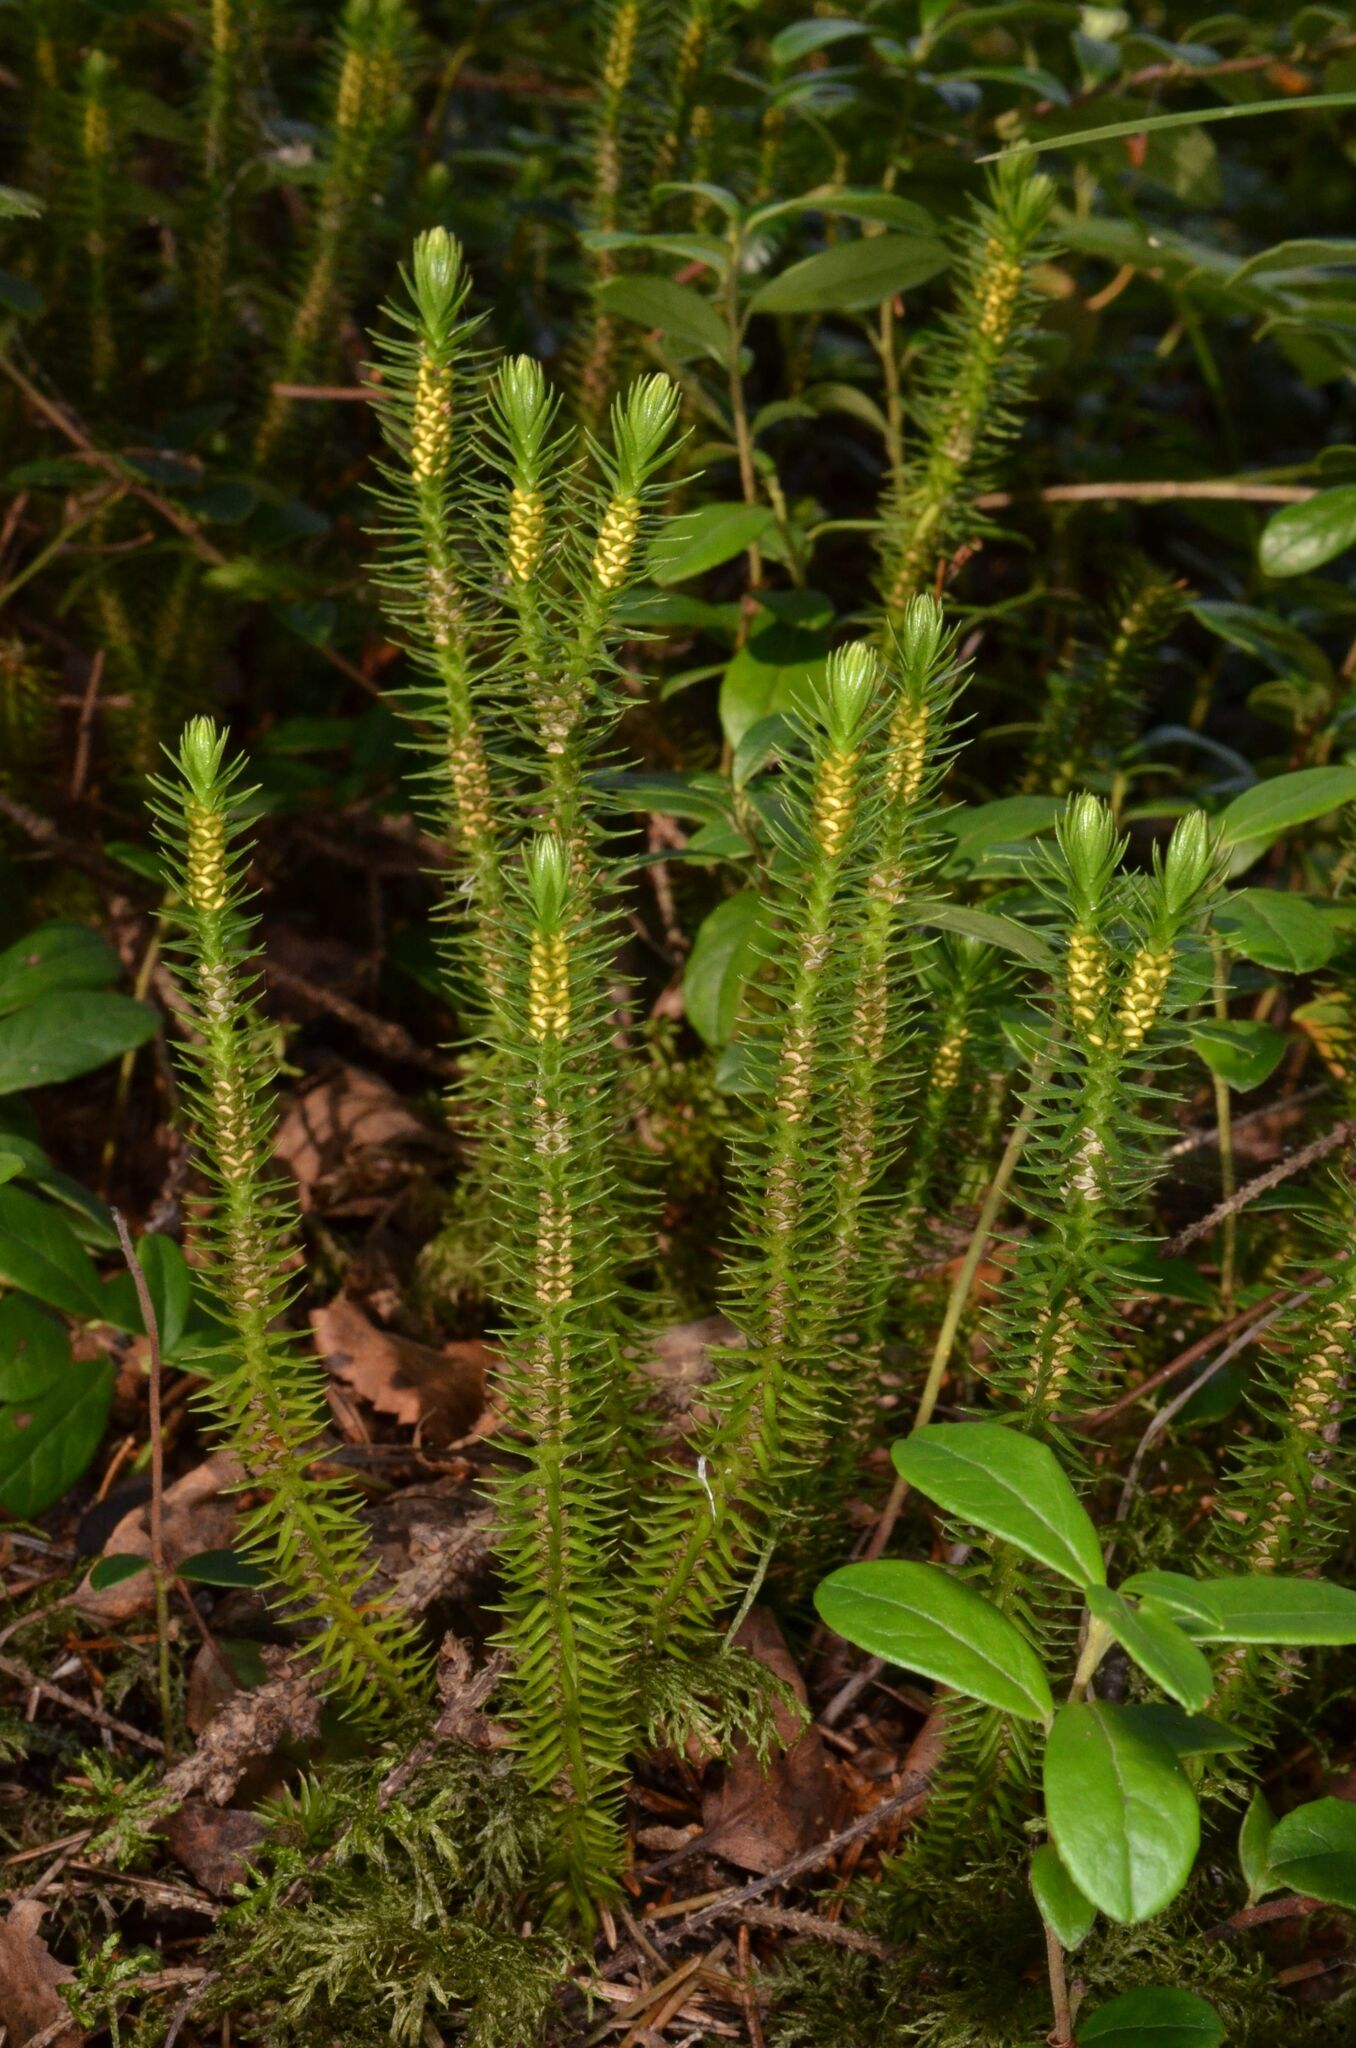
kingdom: Plantae
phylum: Tracheophyta
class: Lycopodiopsida
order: Lycopodiales
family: Lycopodiaceae
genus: Huperzia
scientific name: Huperzia selago
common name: Northern firmoss
